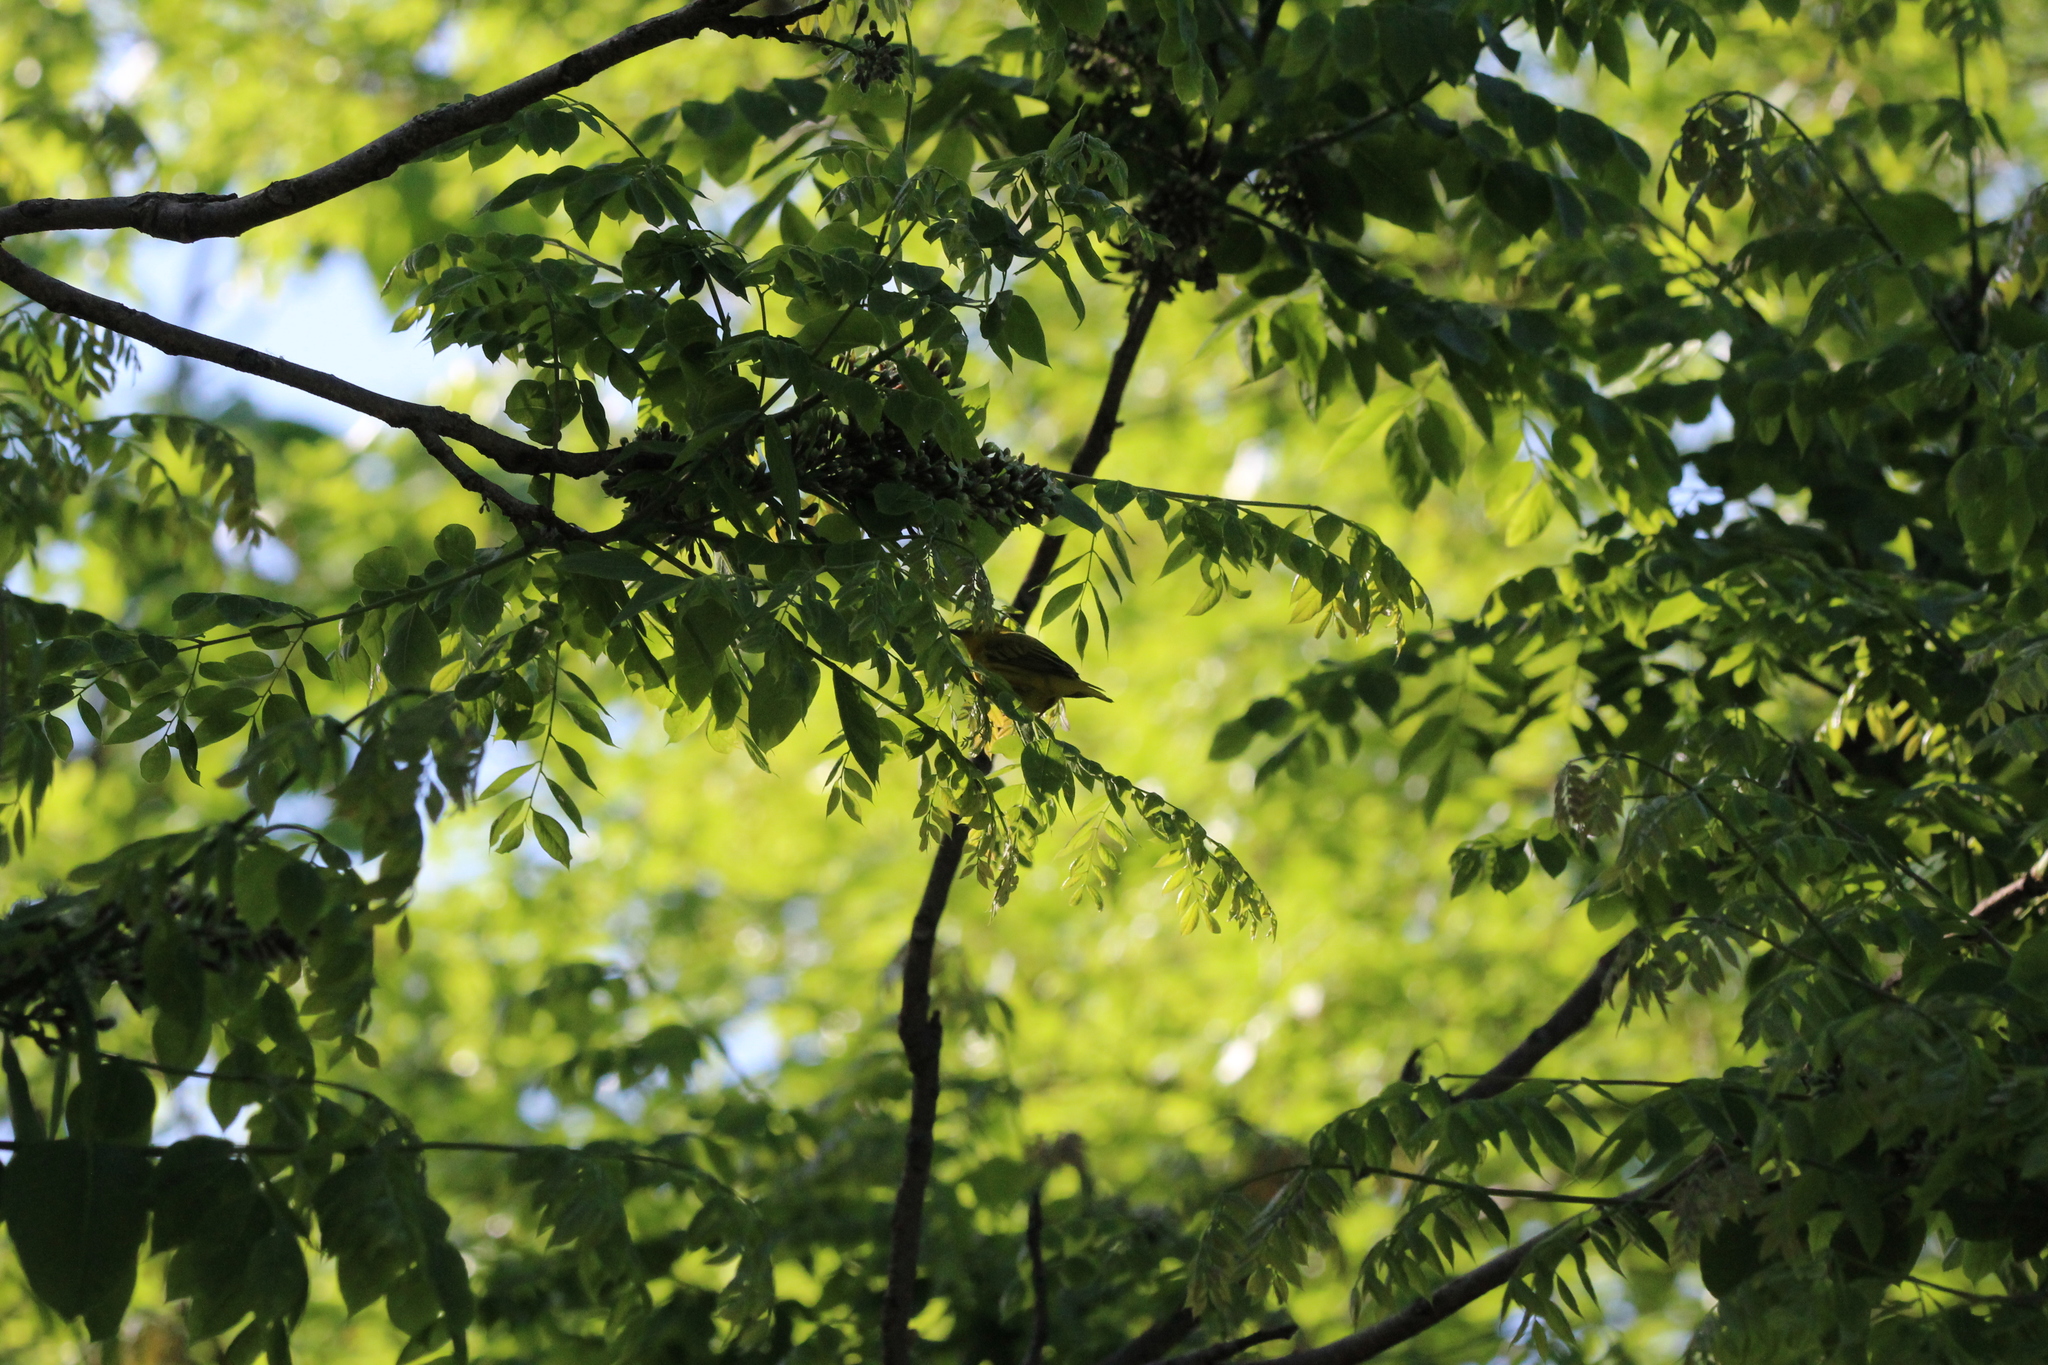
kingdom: Animalia
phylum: Chordata
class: Aves
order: Passeriformes
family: Parulidae
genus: Setophaga
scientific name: Setophaga petechia
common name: Yellow warbler
